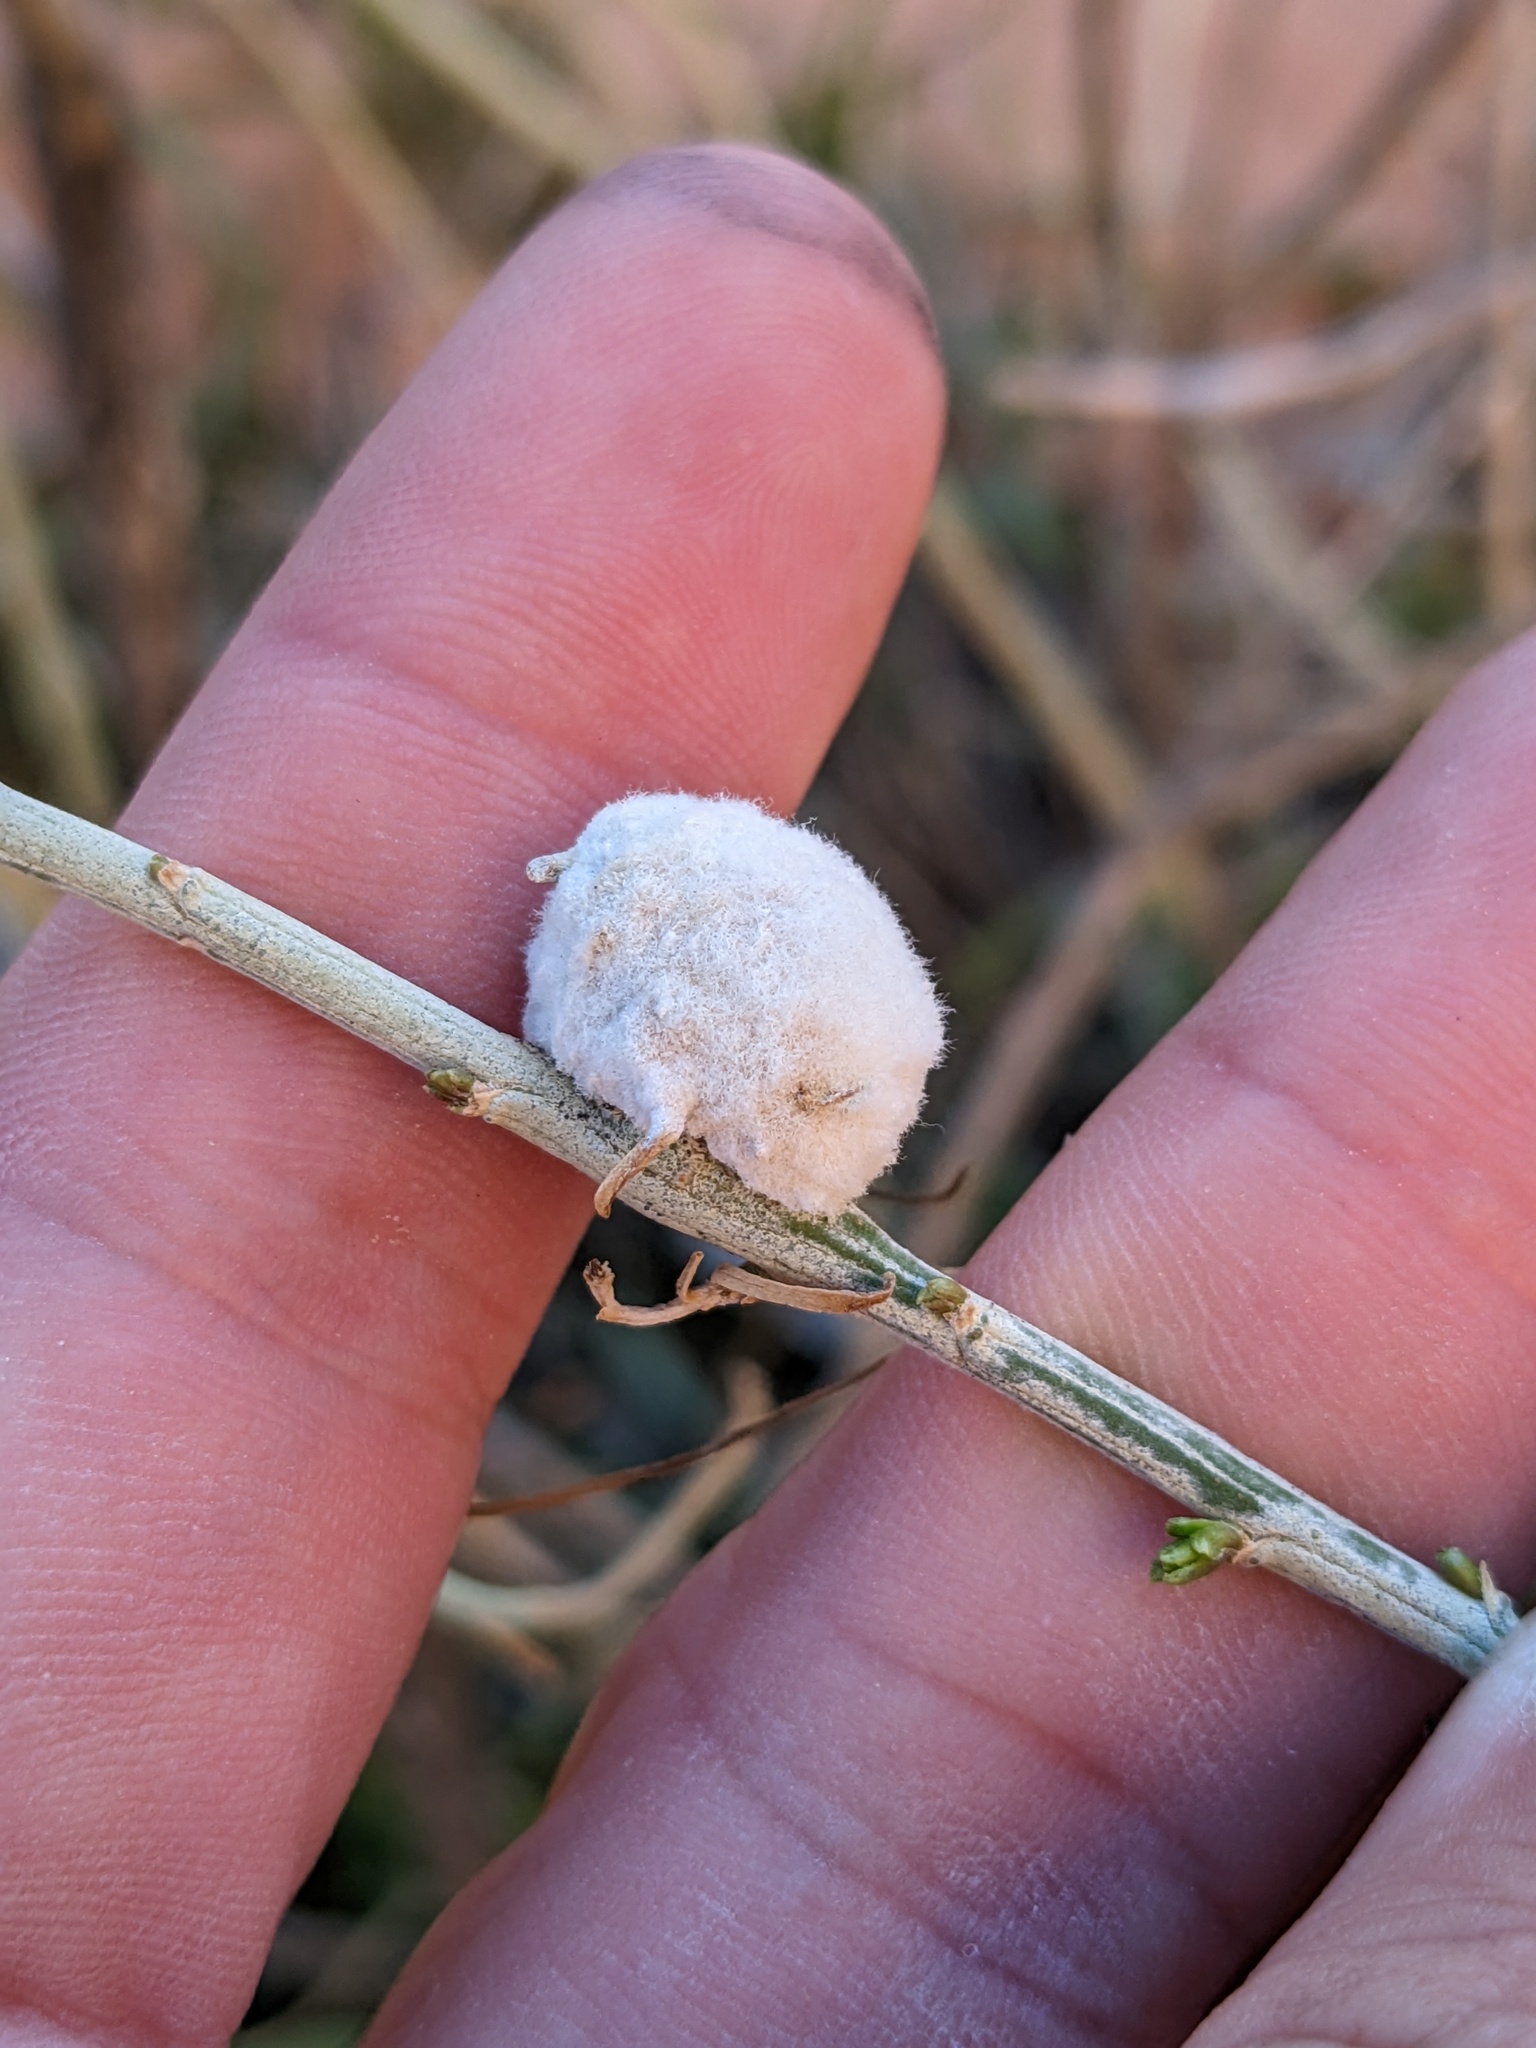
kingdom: Animalia
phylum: Arthropoda
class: Insecta
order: Diptera
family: Tephritidae
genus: Aciurina
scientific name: Aciurina bigeloviae
